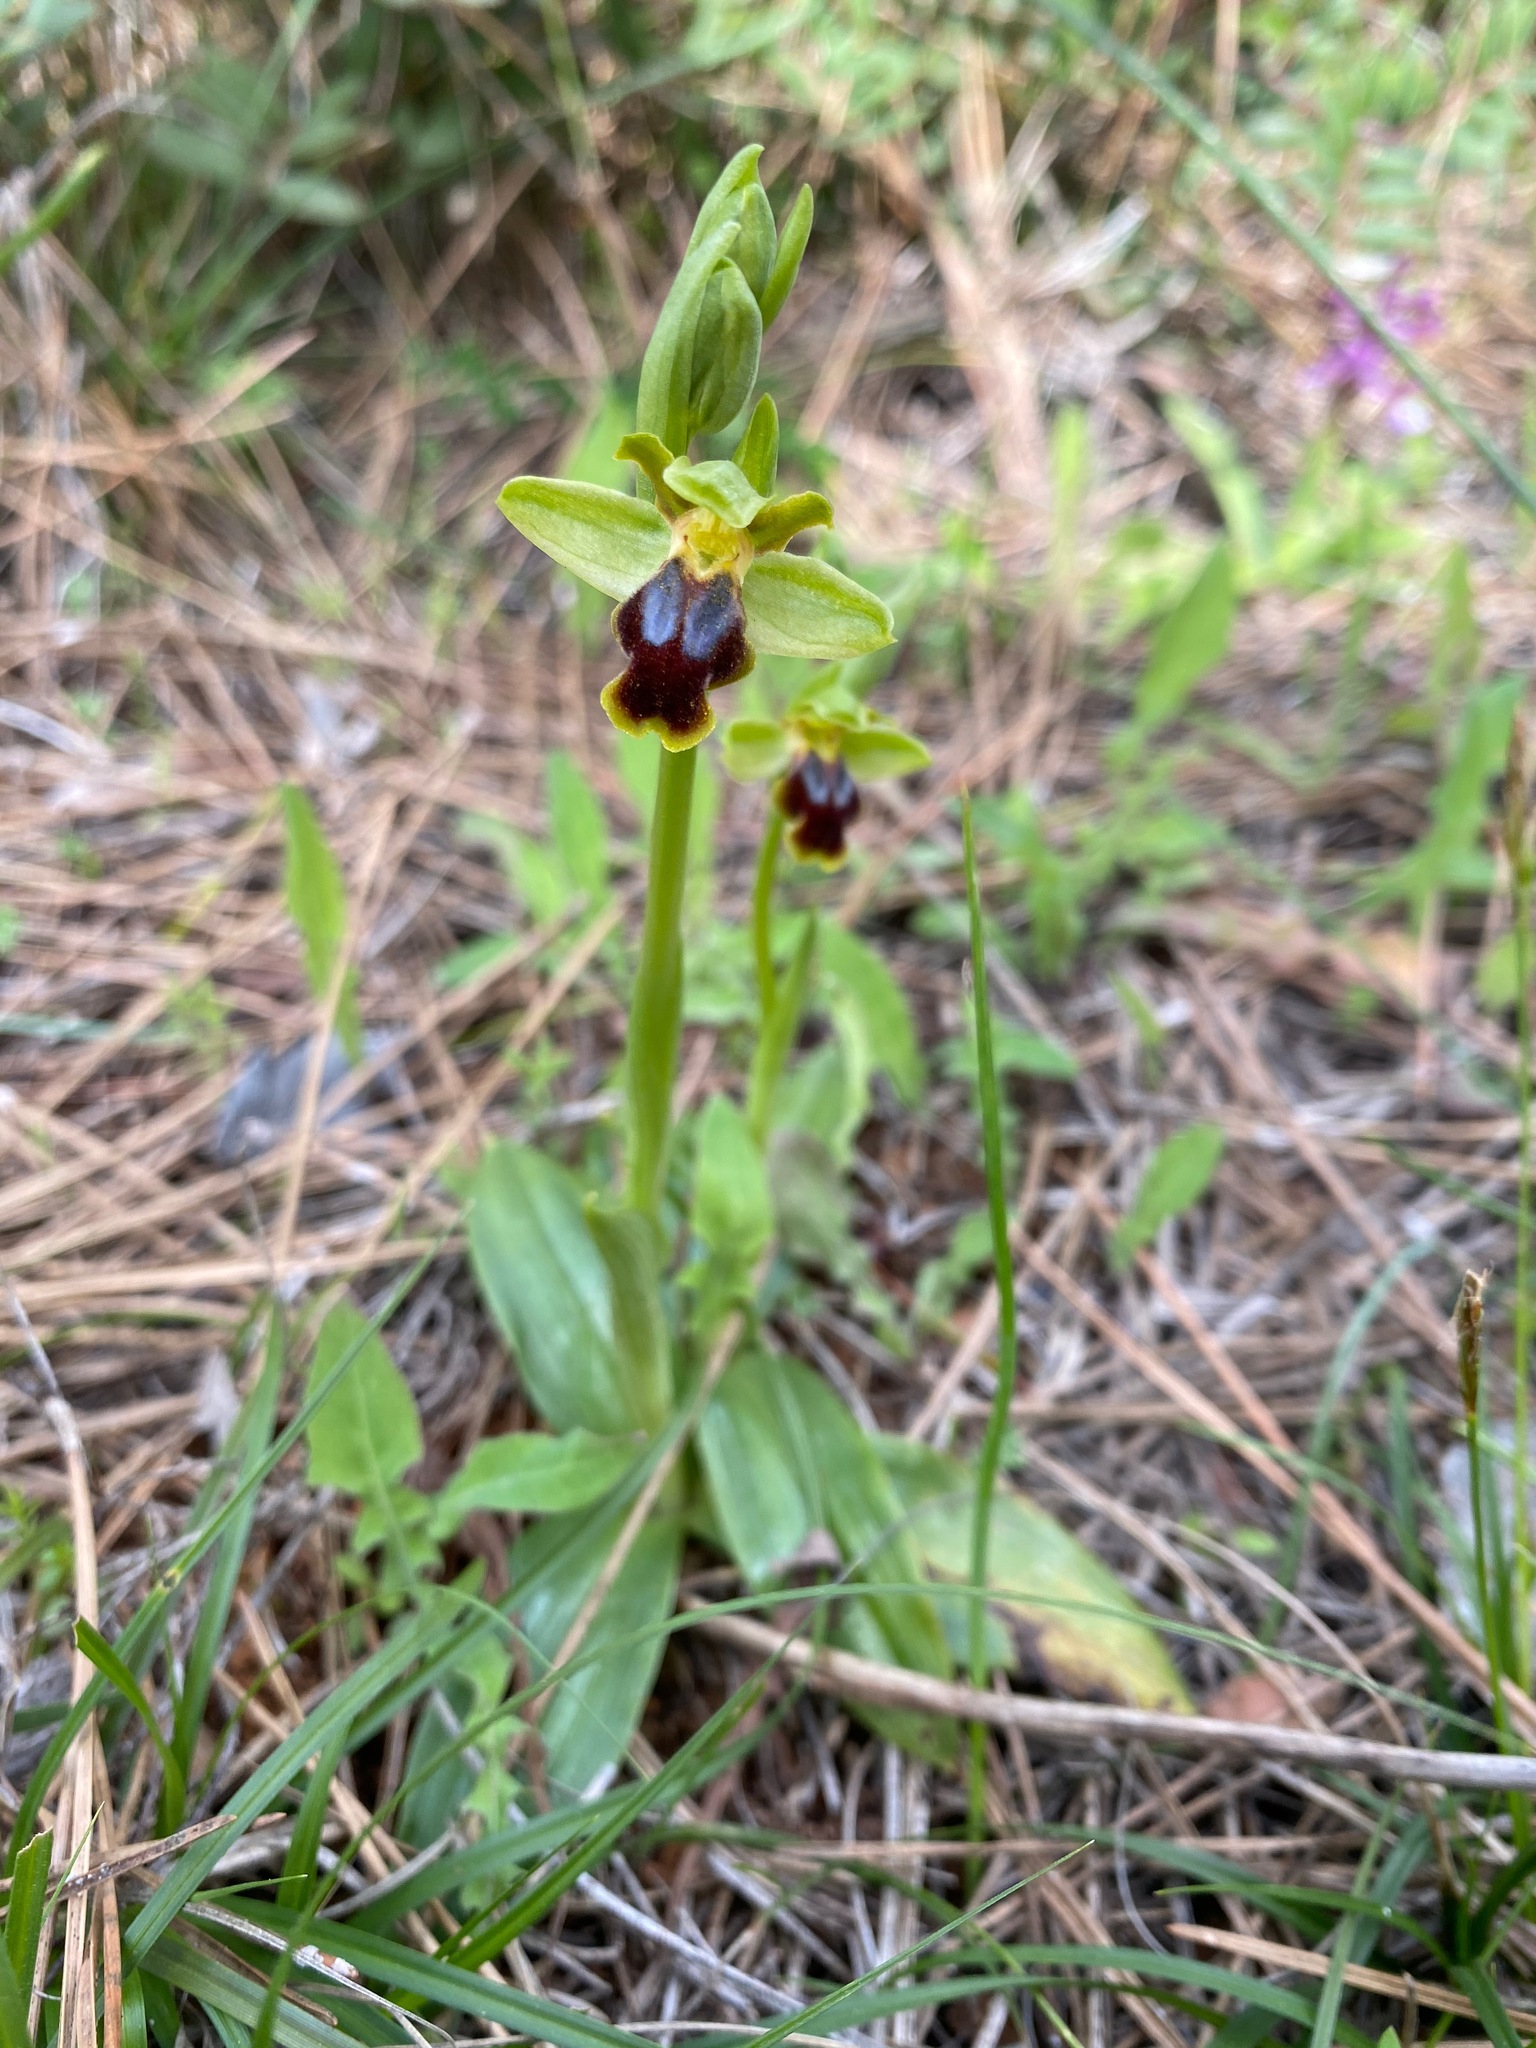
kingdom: Plantae
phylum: Tracheophyta
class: Liliopsida
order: Asparagales
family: Orchidaceae
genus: Ophrys
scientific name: Ophrys fusca
